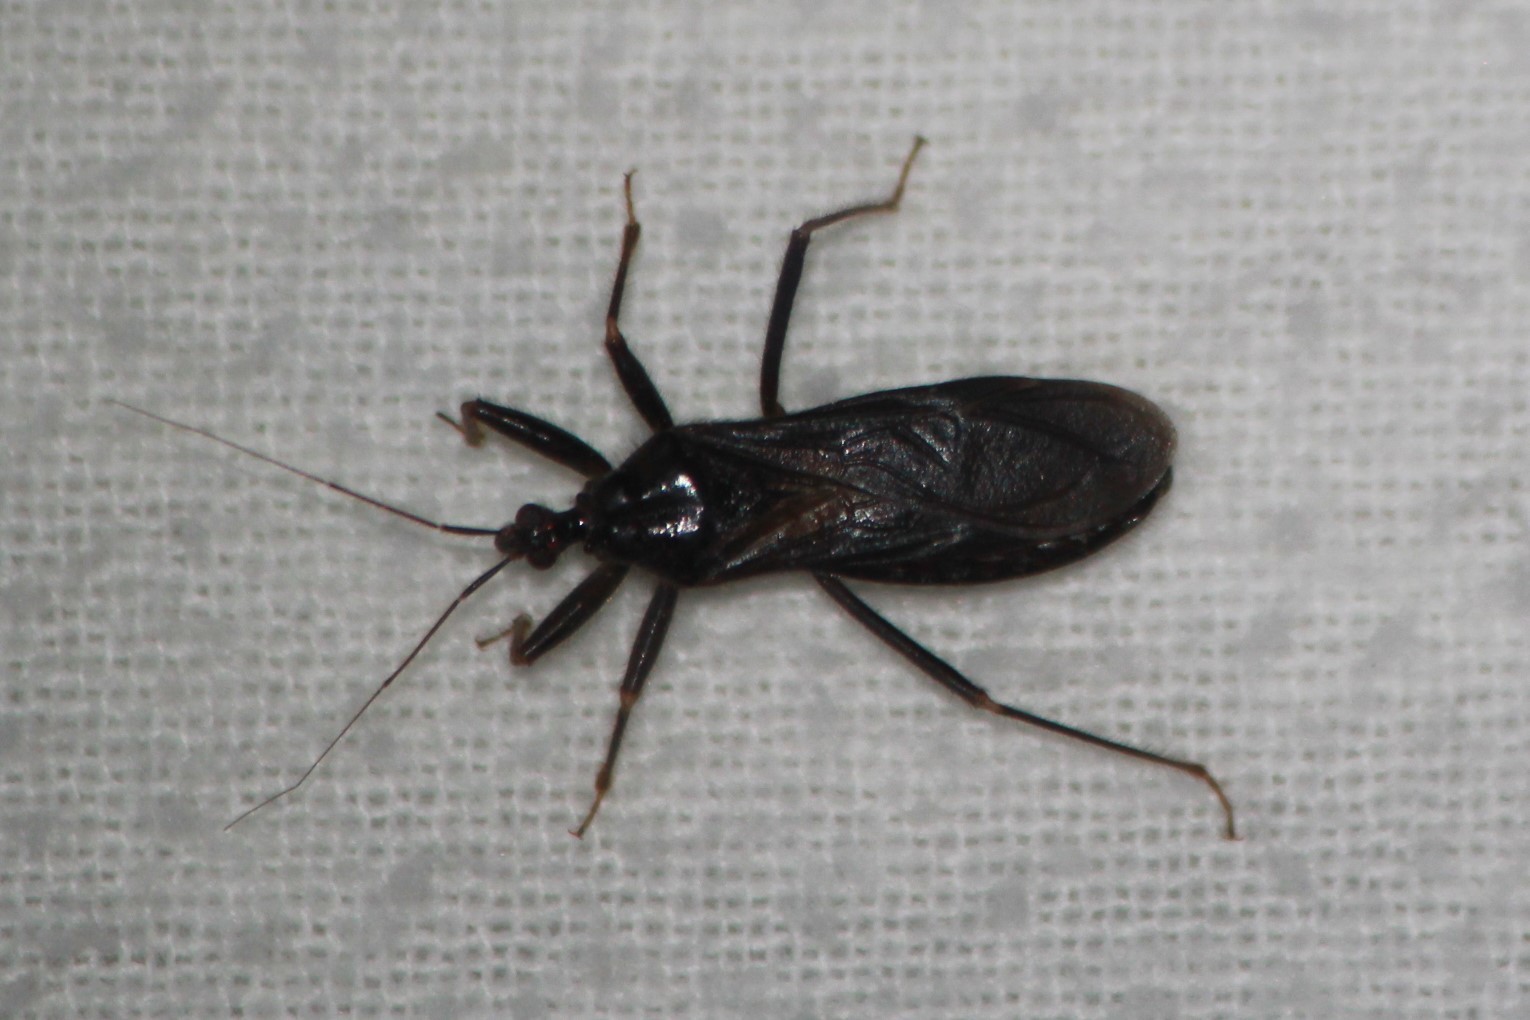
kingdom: Animalia
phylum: Arthropoda
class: Insecta
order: Hemiptera
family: Reduviidae
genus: Reduvius
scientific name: Reduvius personatus
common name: Masked hunter
